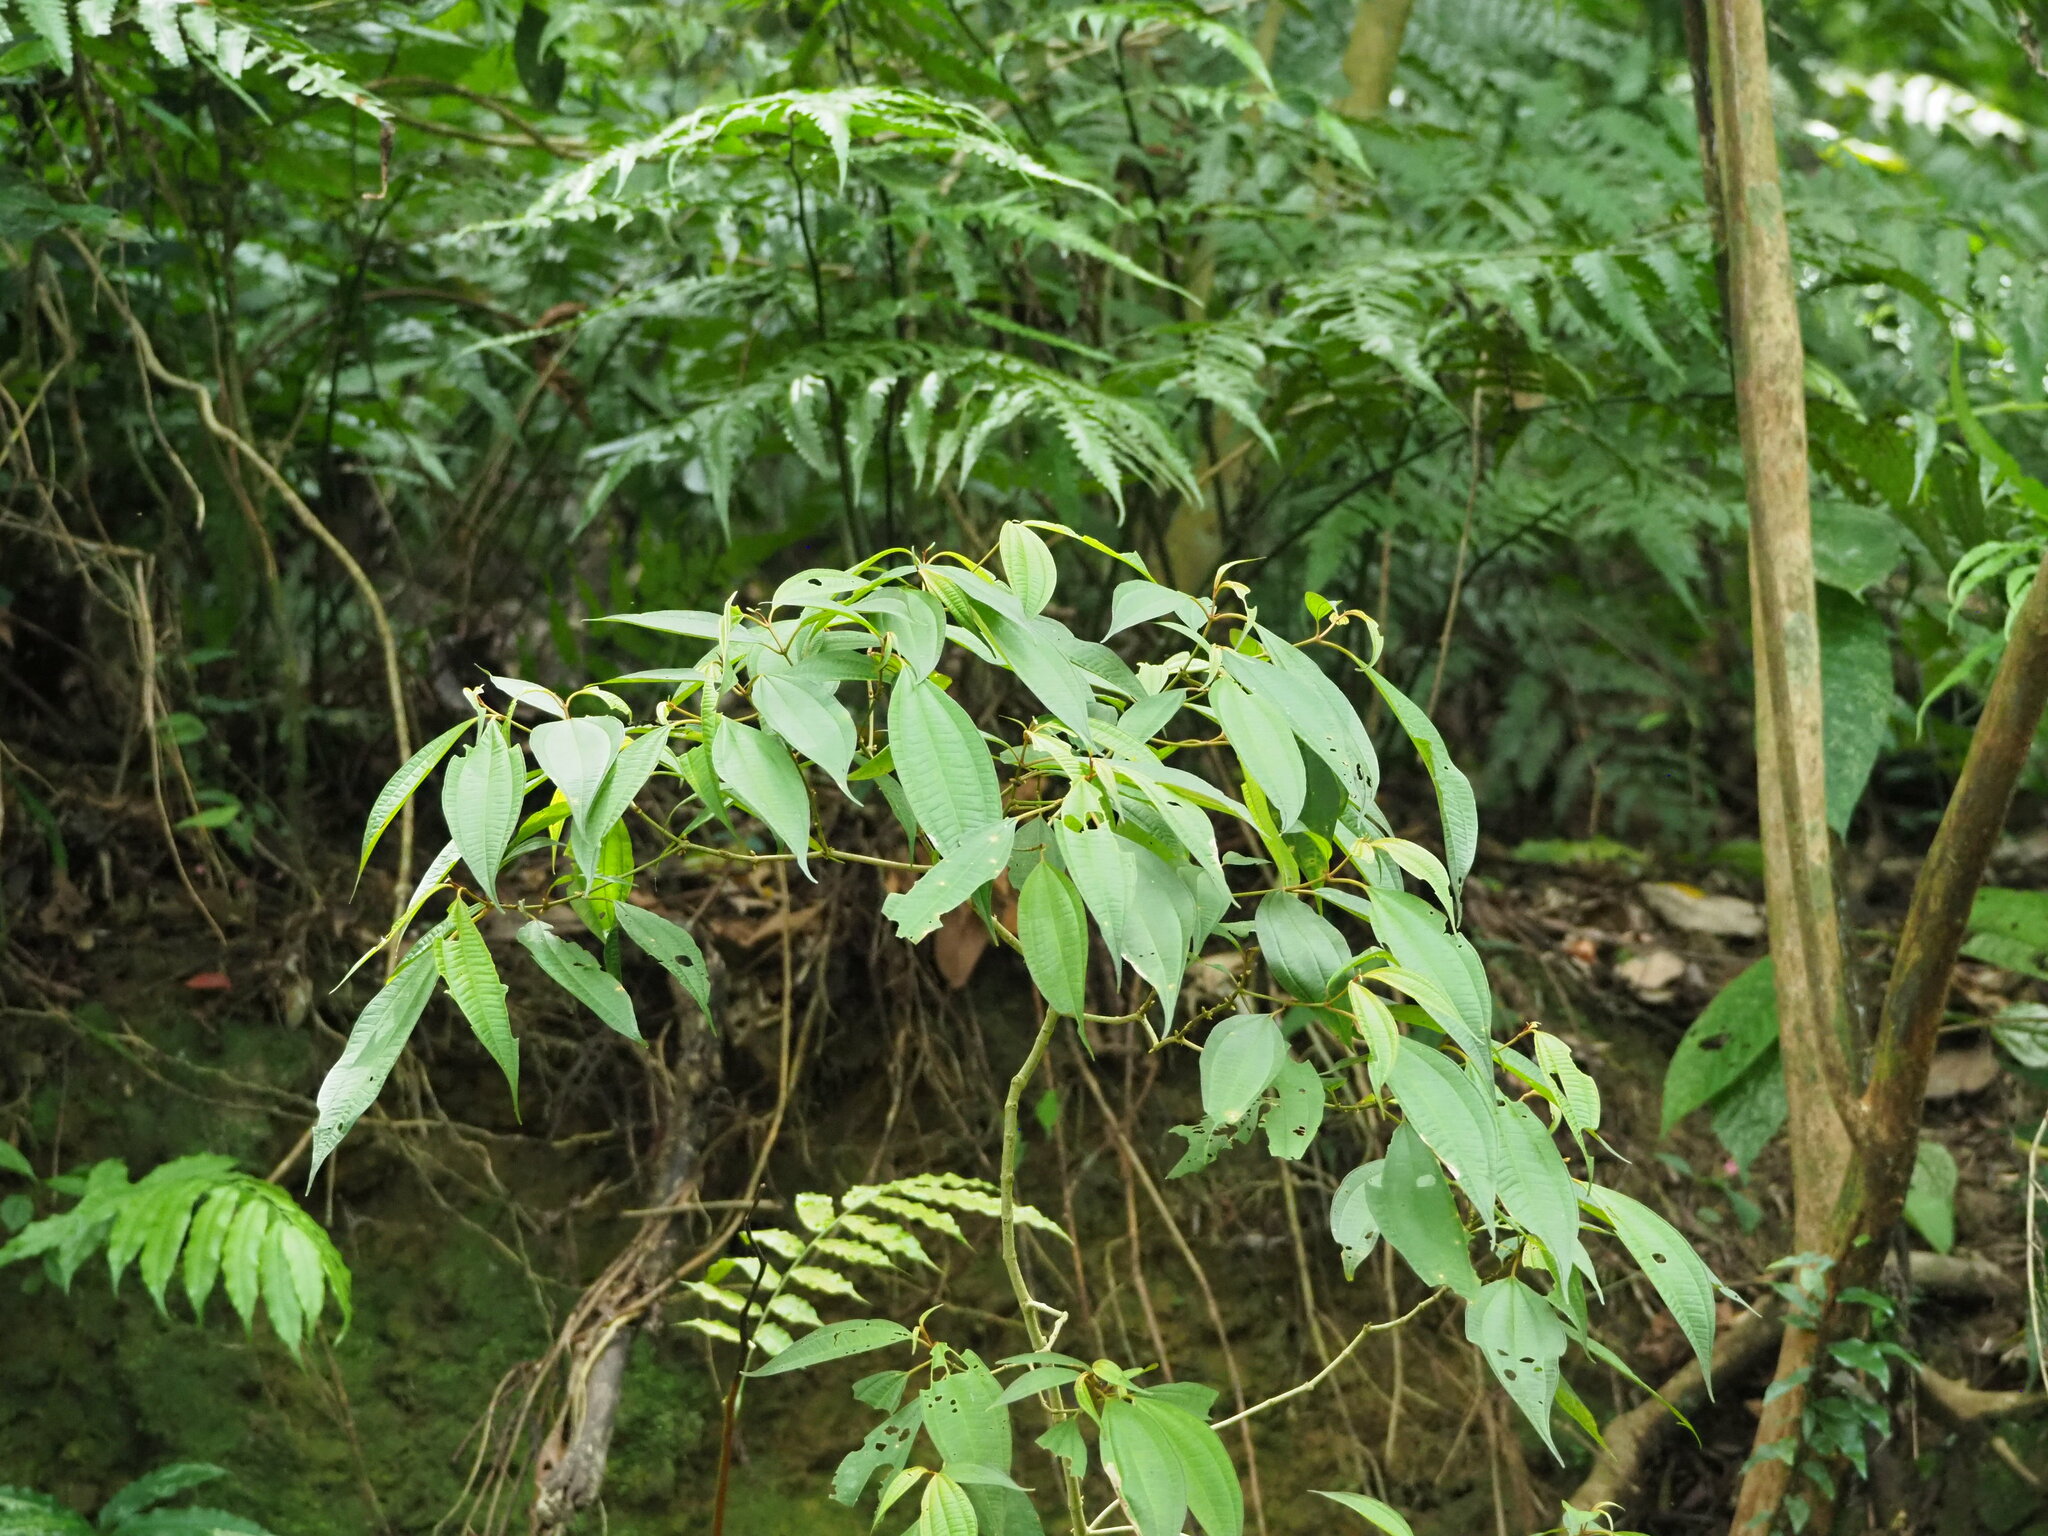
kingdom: Plantae
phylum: Tracheophyta
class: Magnoliopsida
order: Myrtales
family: Melastomataceae
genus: Blastus
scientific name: Blastus cochinchinensis
